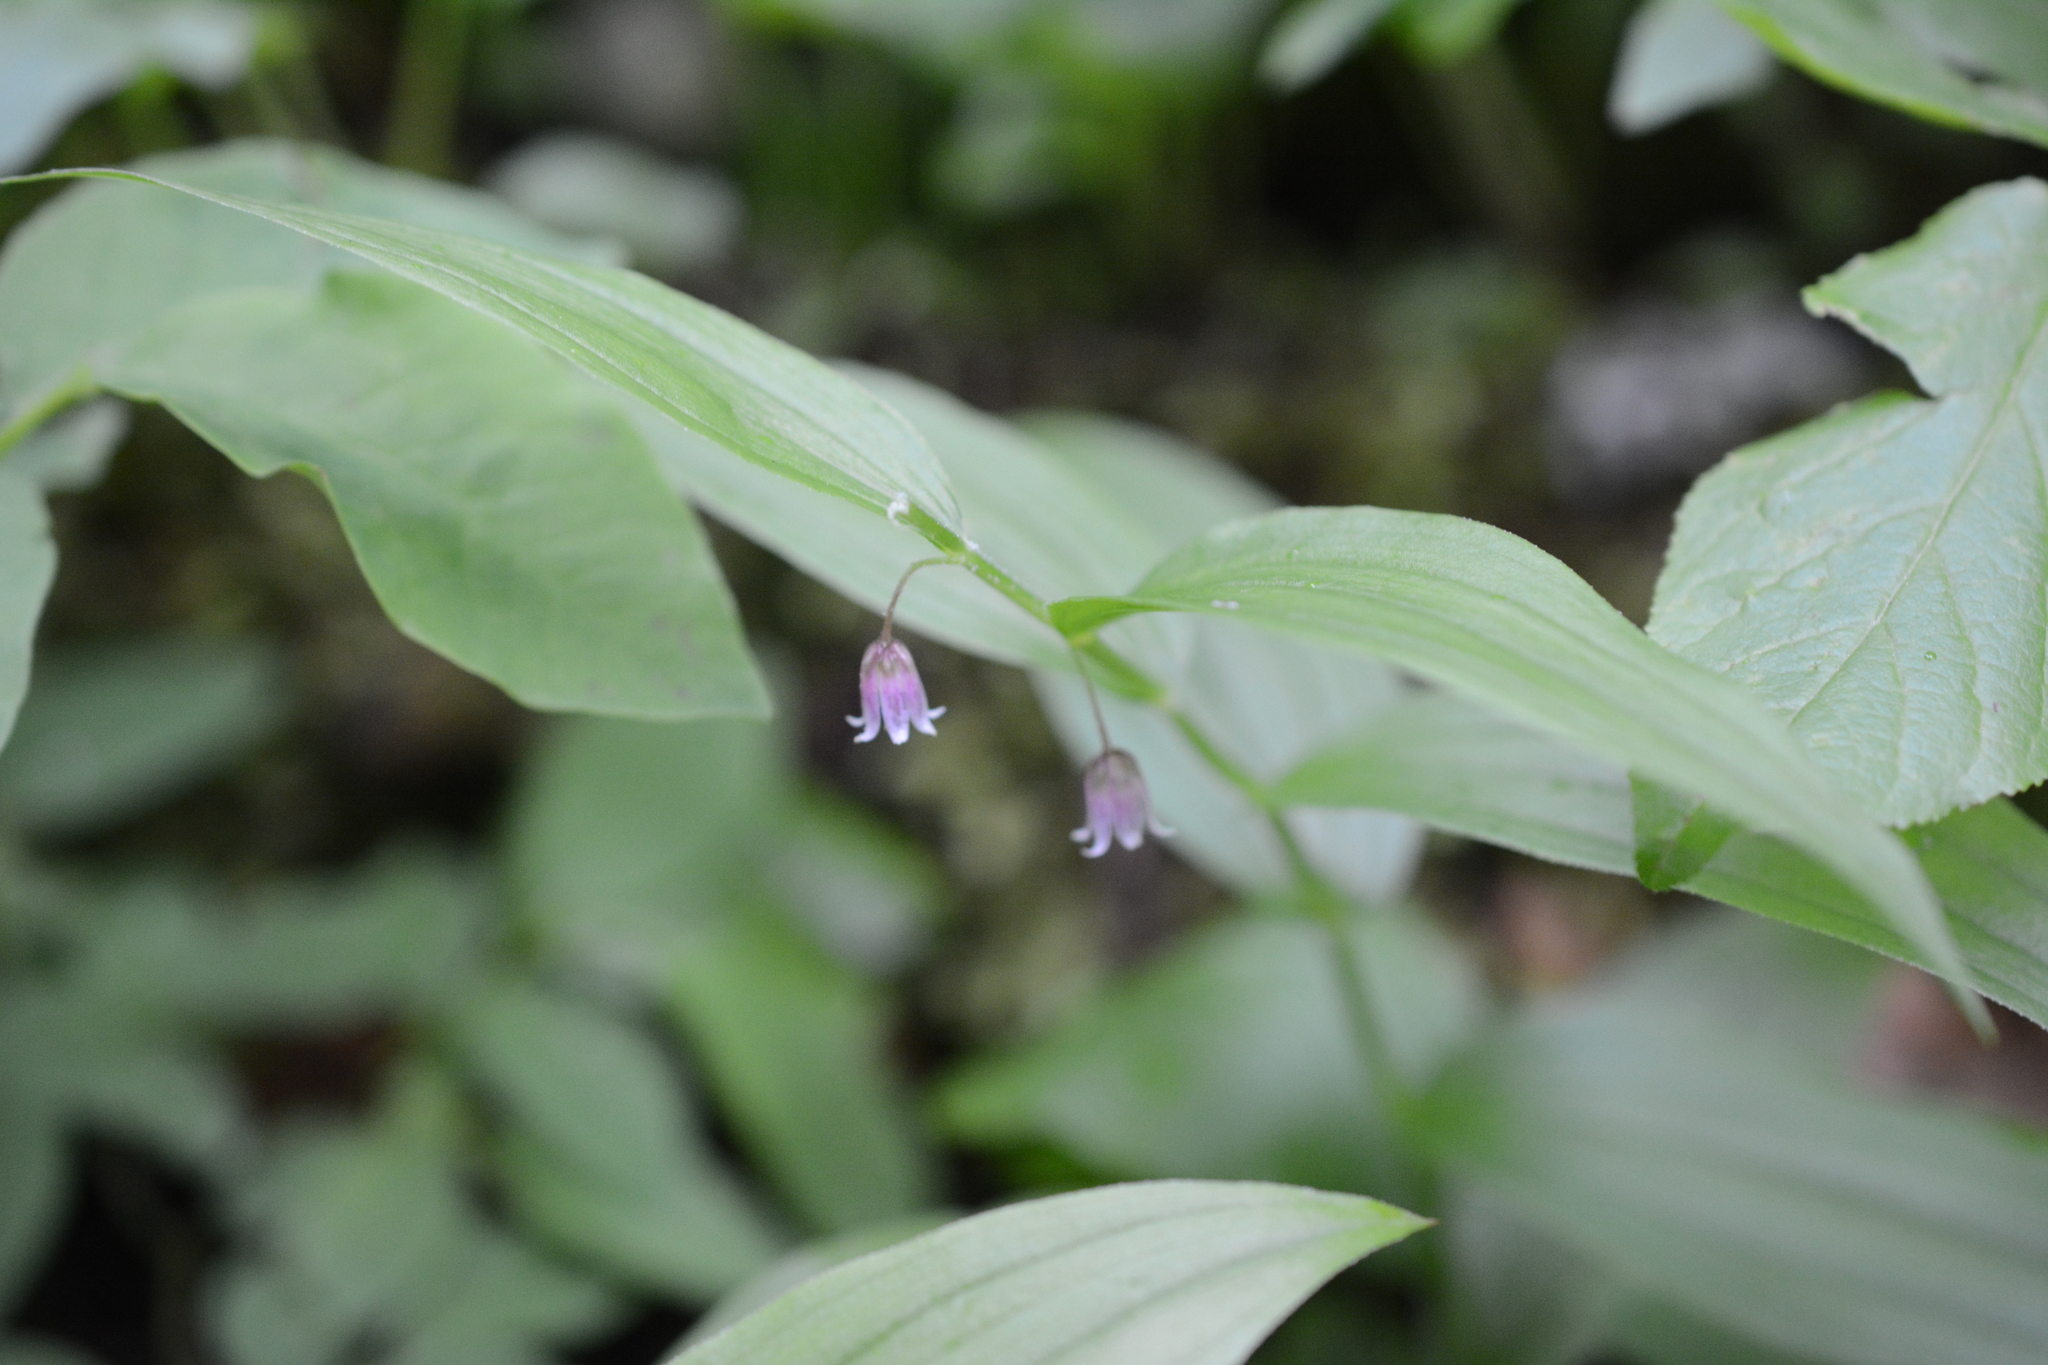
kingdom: Plantae
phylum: Tracheophyta
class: Liliopsida
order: Liliales
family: Liliaceae
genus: Streptopus
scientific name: Streptopus lanceolatus
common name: Rose mandarin
